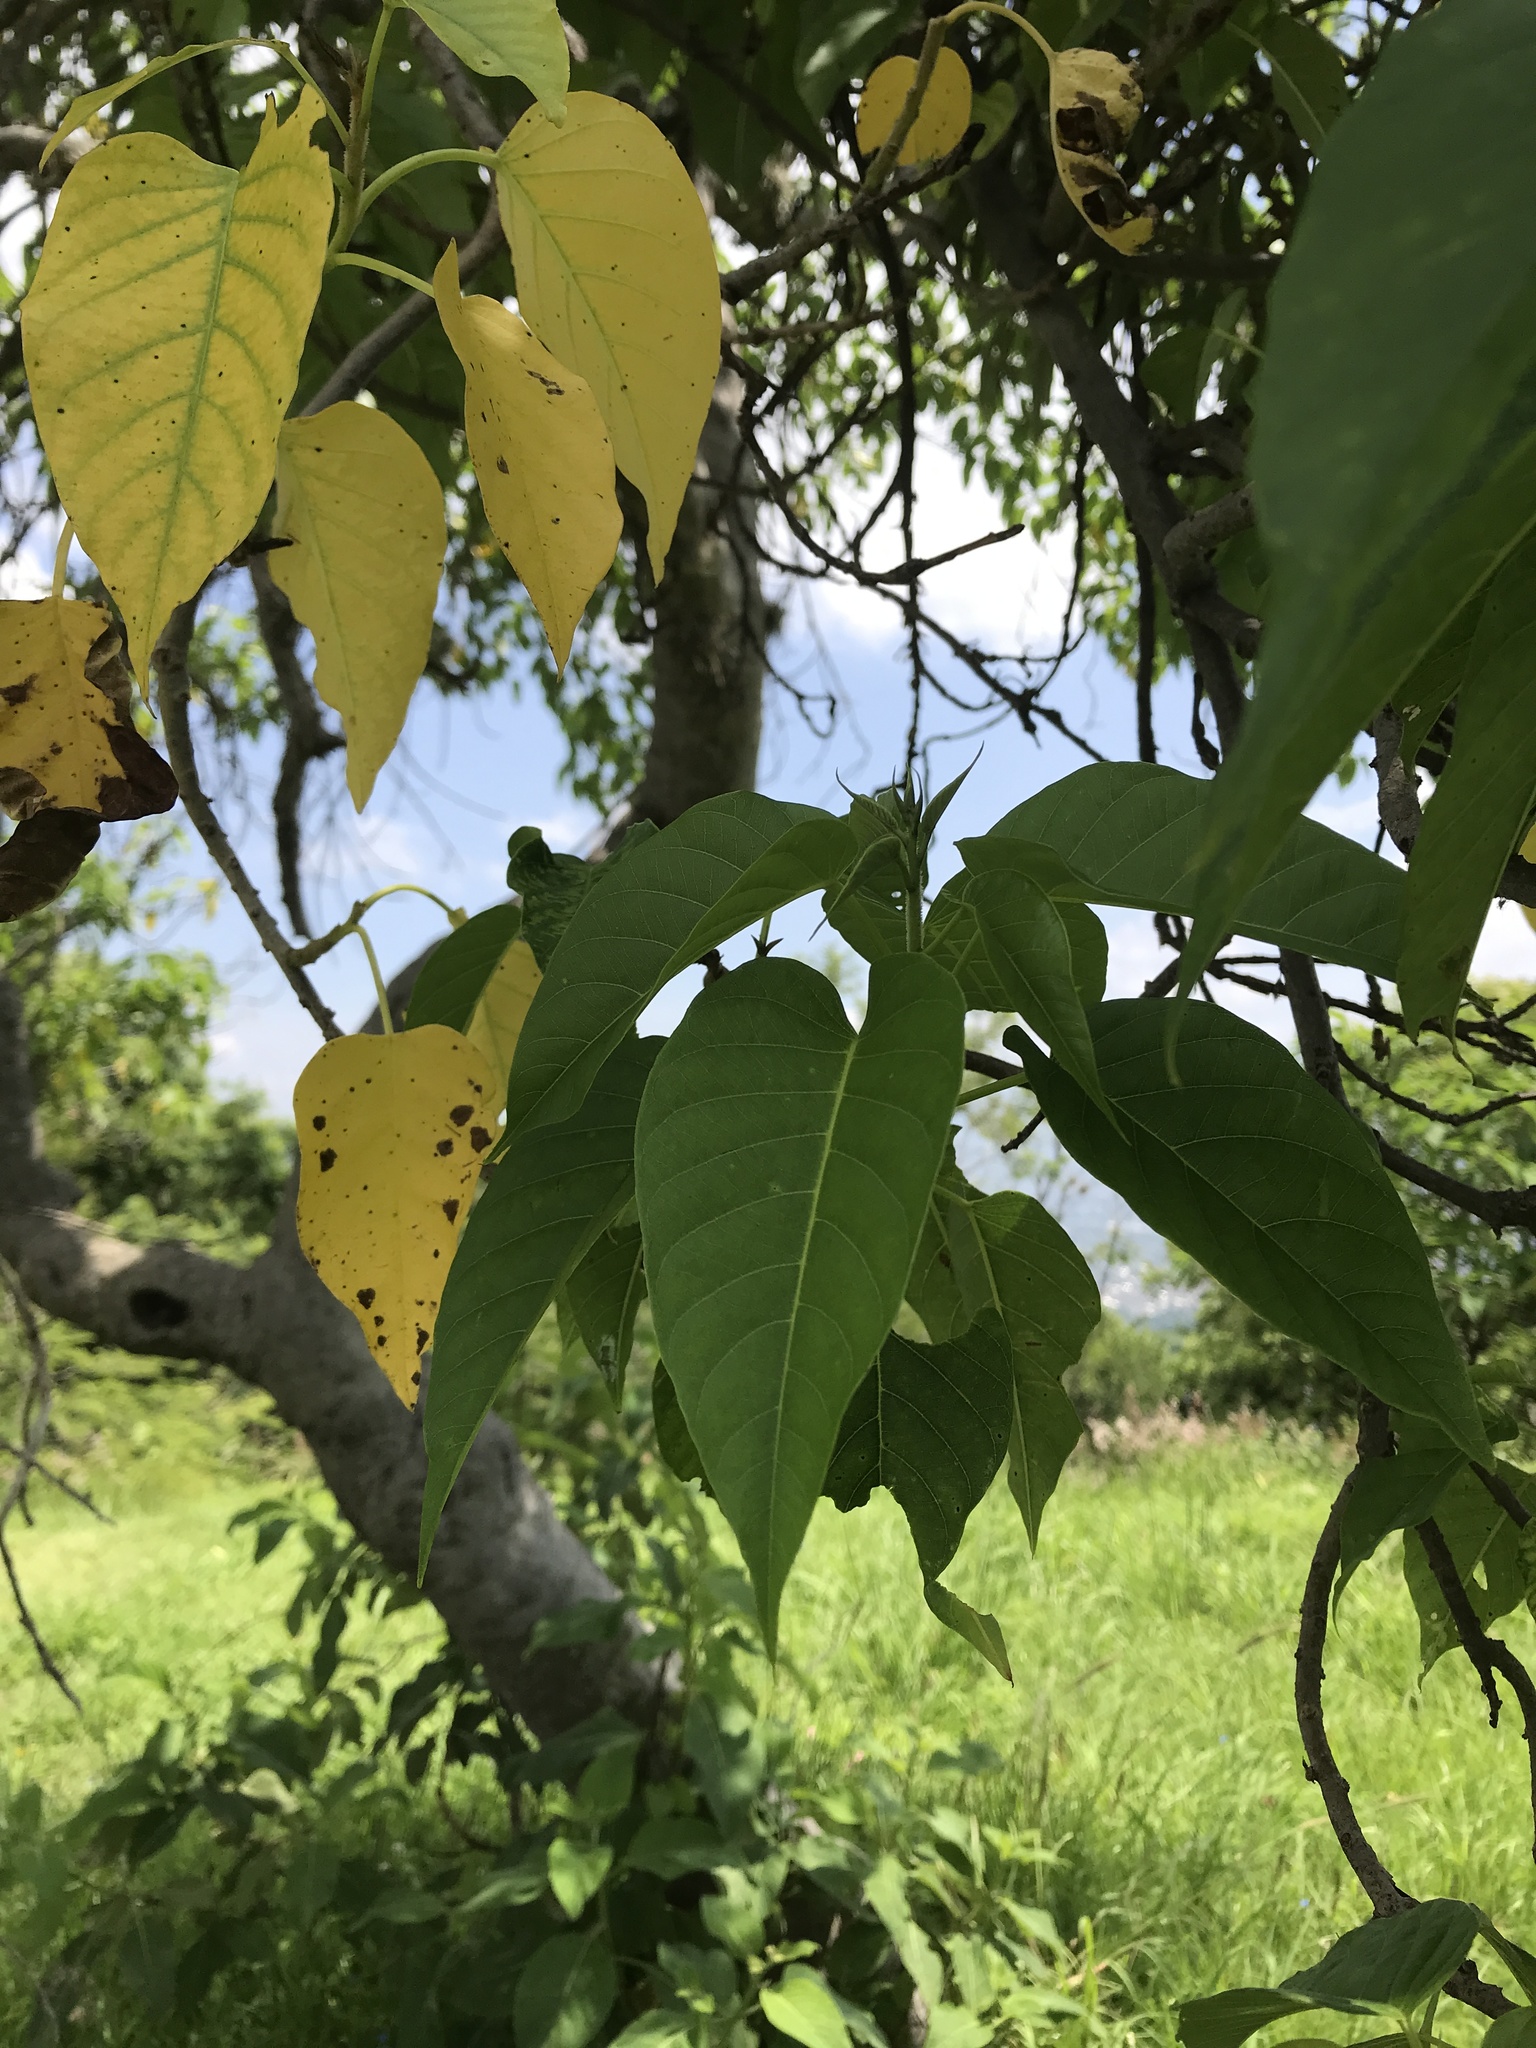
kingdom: Plantae
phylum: Tracheophyta
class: Magnoliopsida
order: Solanales
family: Convolvulaceae
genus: Ipomoea
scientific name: Ipomoea pauciflora
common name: Tree morningglory
